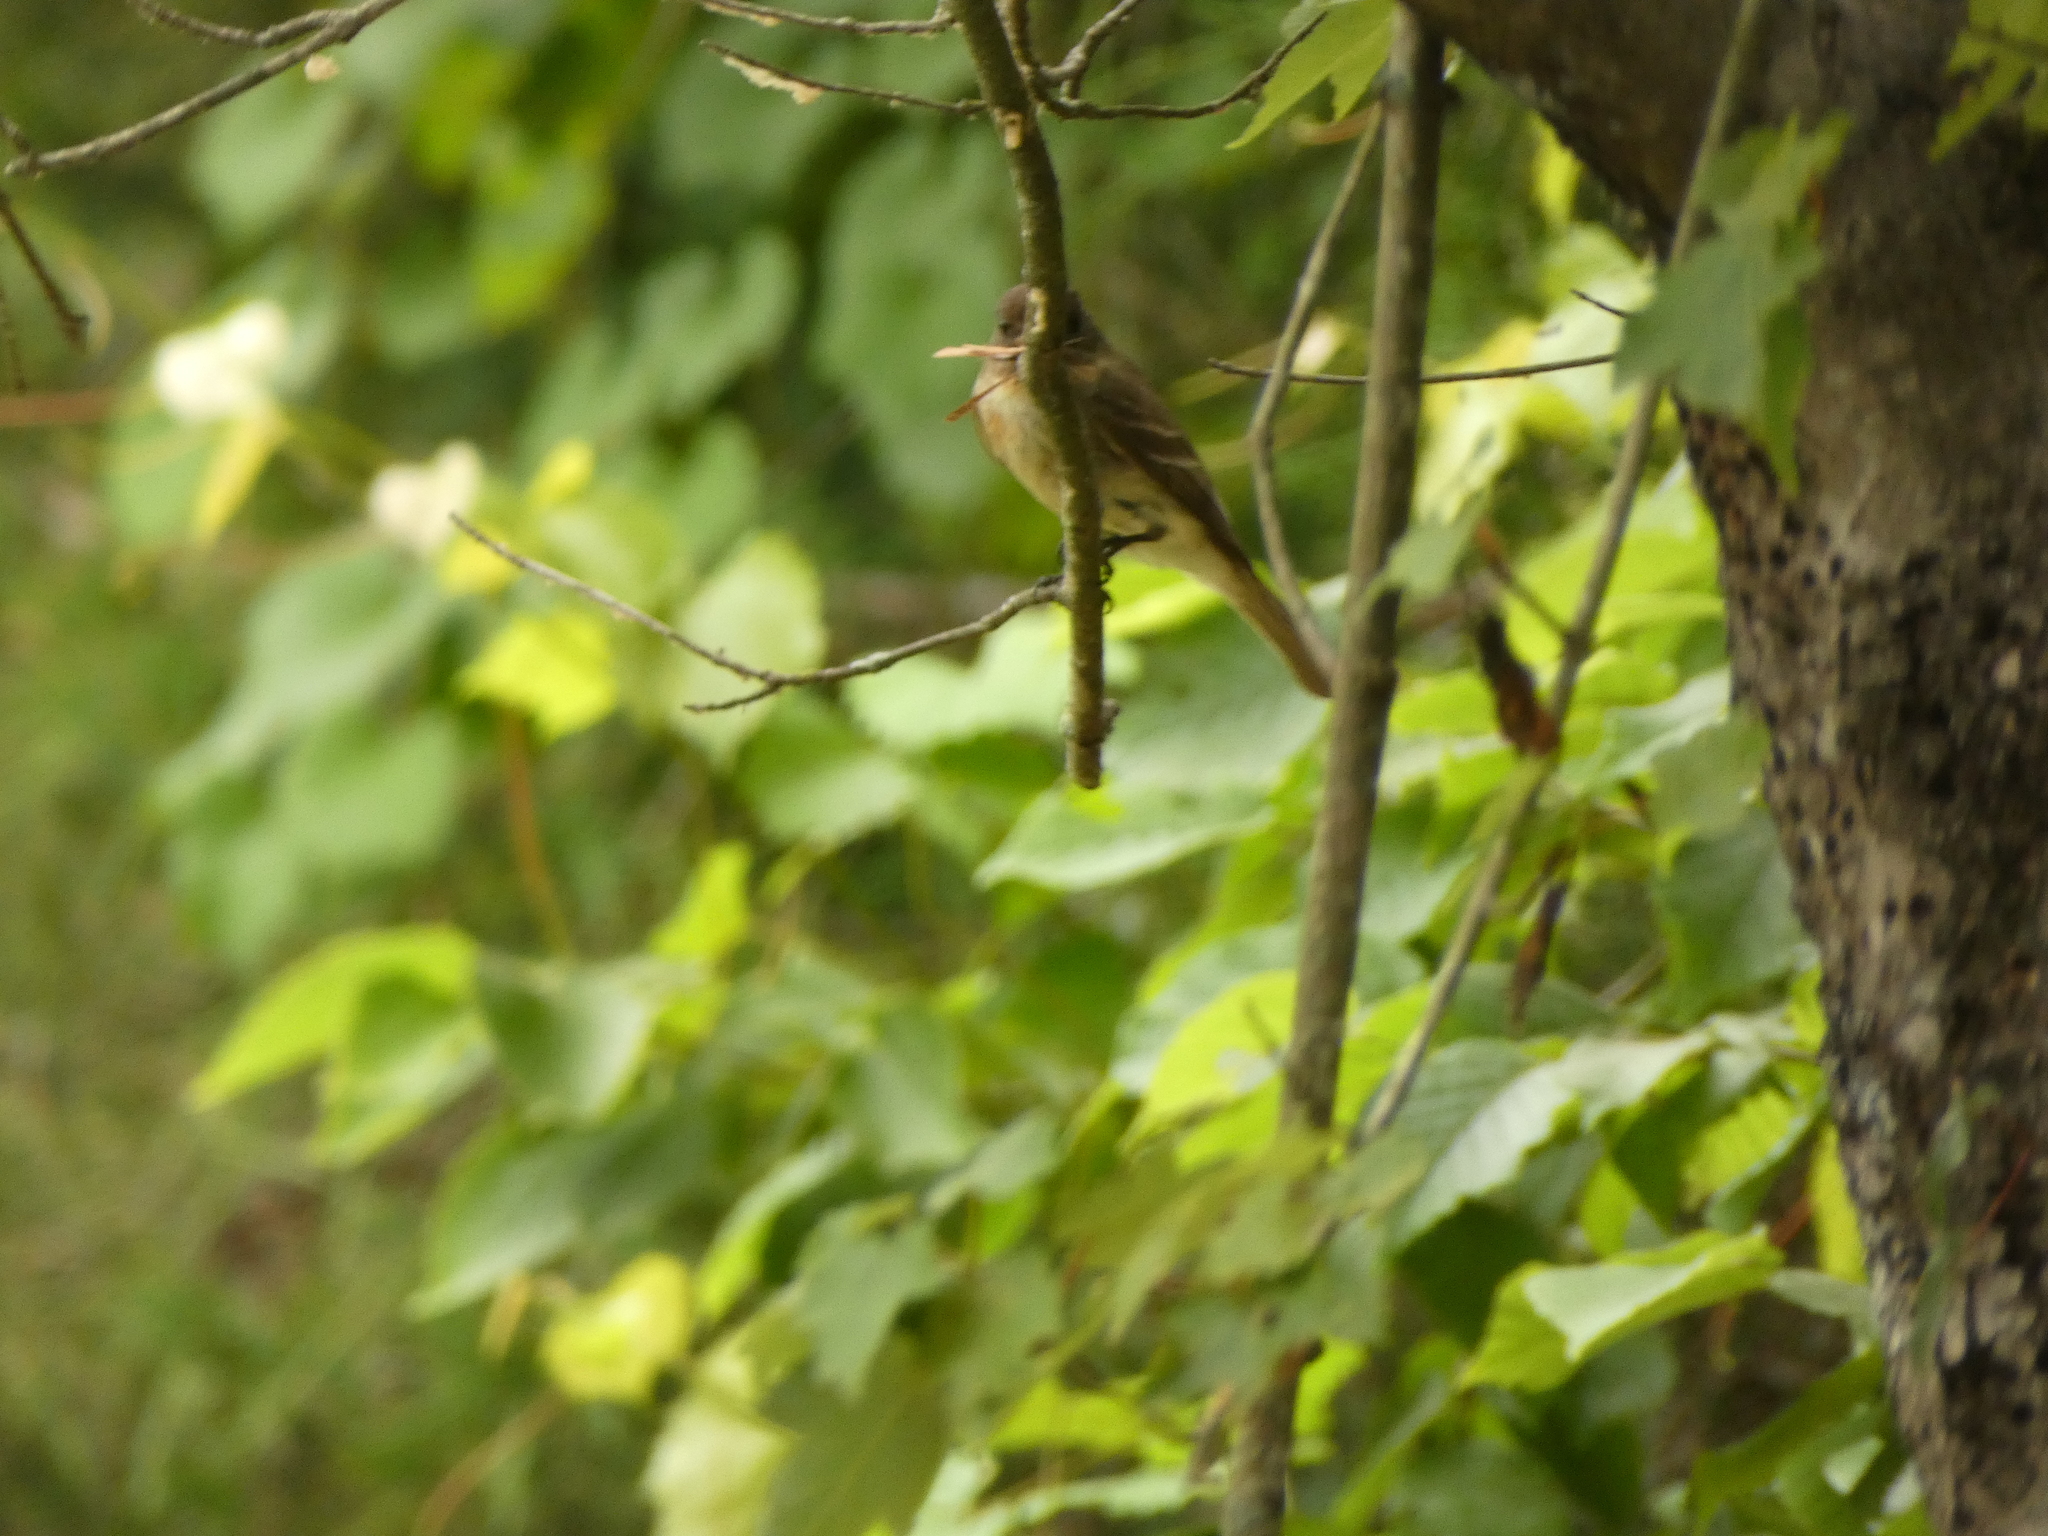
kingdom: Animalia
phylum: Chordata
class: Aves
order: Passeriformes
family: Tyrannidae
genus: Contopus
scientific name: Contopus virens
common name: Eastern wood-pewee
